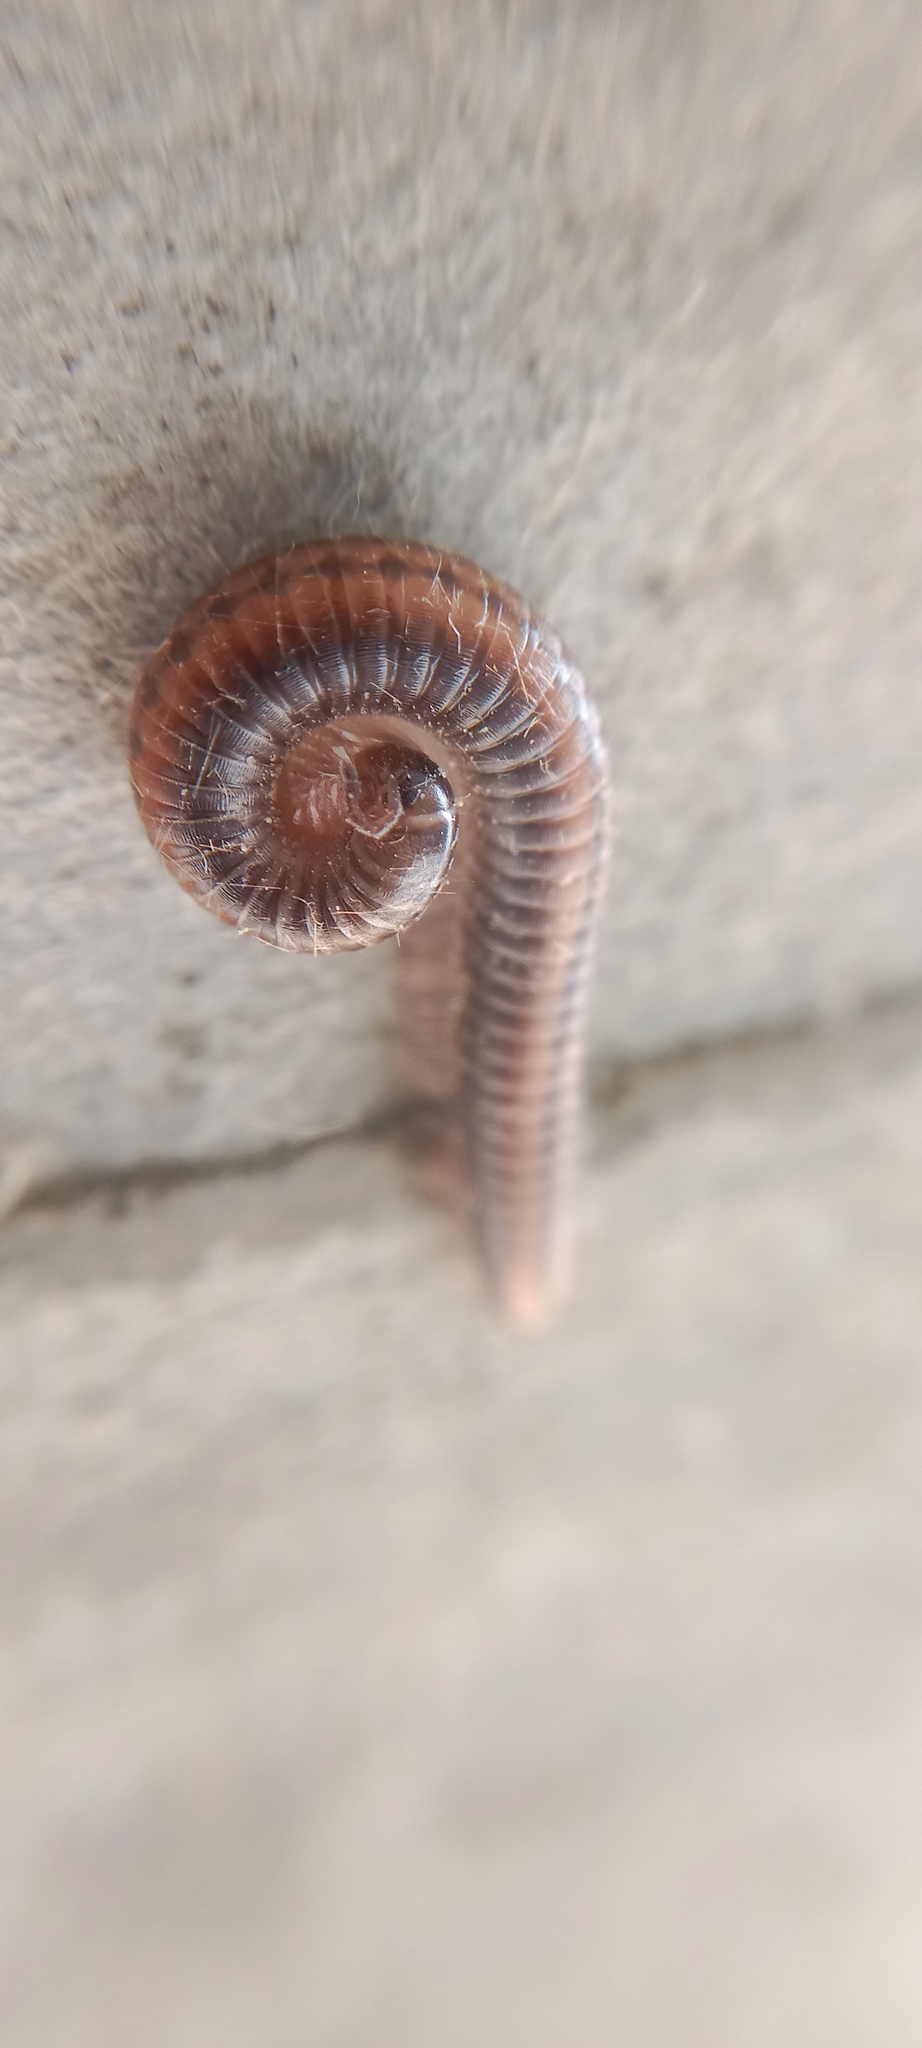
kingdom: Animalia
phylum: Arthropoda
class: Diplopoda
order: Julida
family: Julidae
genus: Ommatoiulus
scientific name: Ommatoiulus sabulosus
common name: Striped millipede
